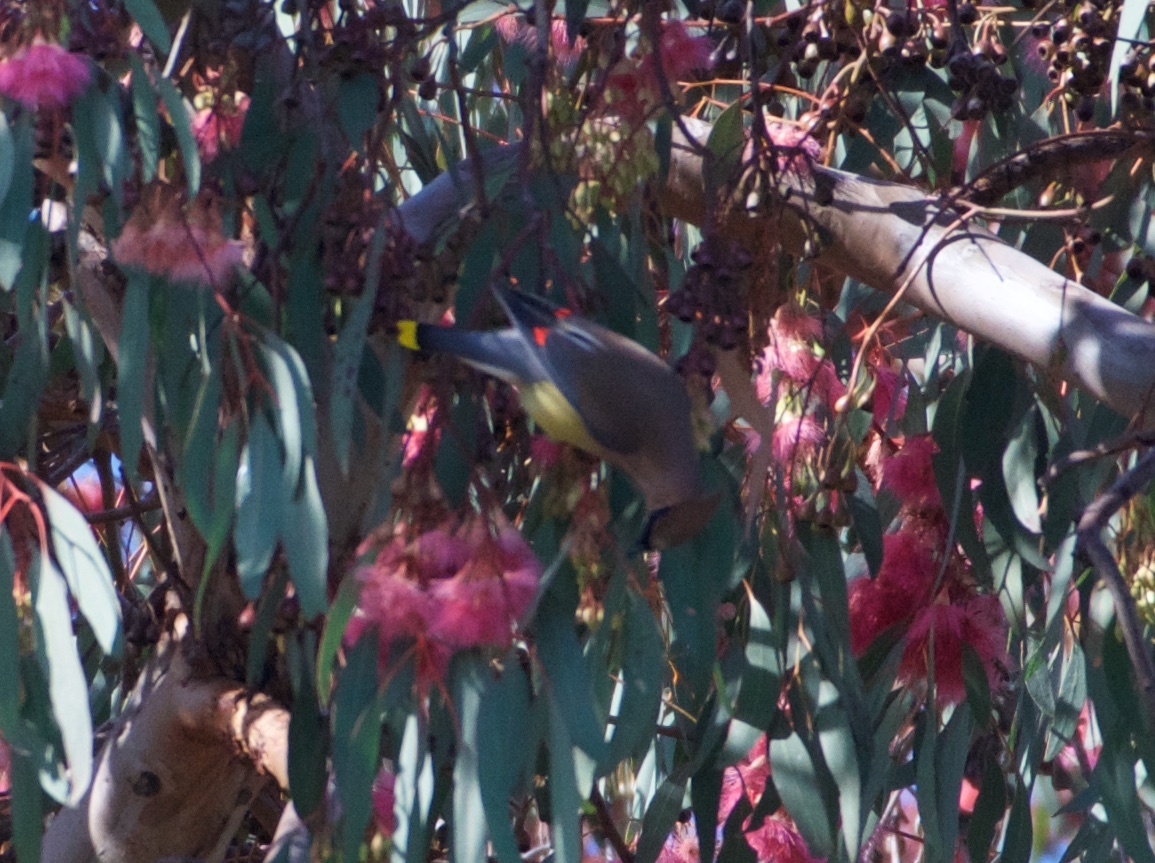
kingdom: Animalia
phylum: Chordata
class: Aves
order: Passeriformes
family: Bombycillidae
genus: Bombycilla
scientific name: Bombycilla cedrorum
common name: Cedar waxwing
